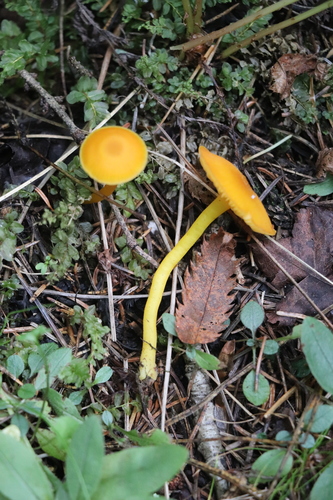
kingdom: Fungi
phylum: Basidiomycota
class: Agaricomycetes
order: Agaricales
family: Hygrophoraceae
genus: Hygrocybe
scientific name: Hygrocybe
